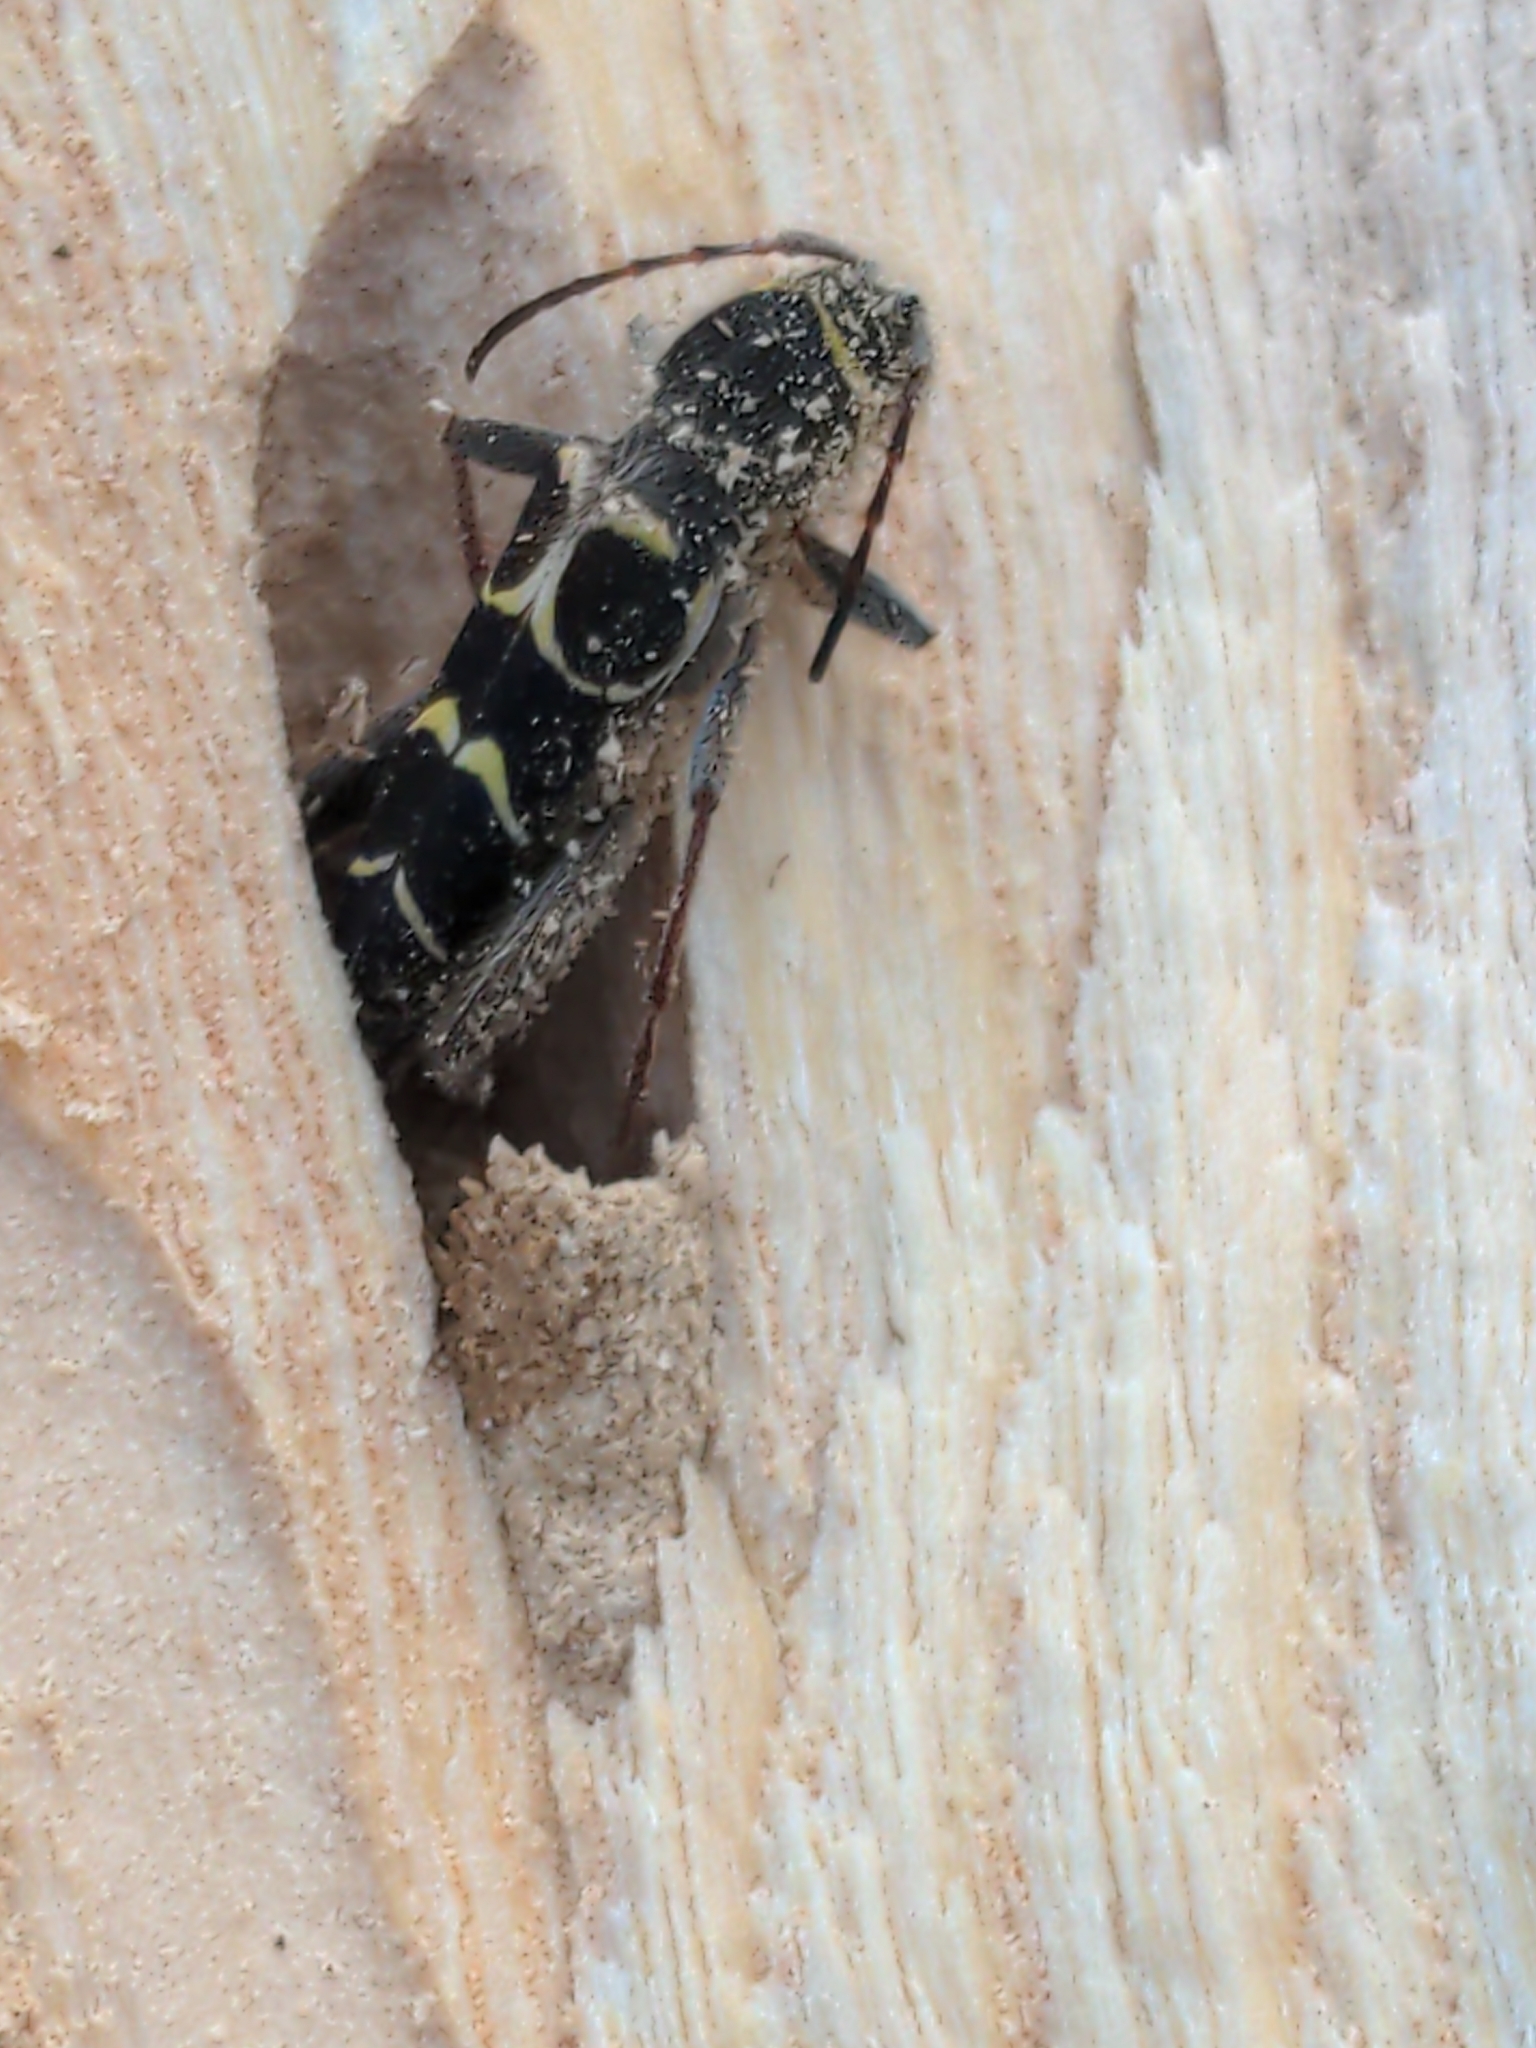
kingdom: Animalia
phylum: Arthropoda
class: Insecta
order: Coleoptera
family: Cerambycidae
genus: Neoclytus
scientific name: Neoclytus caprea
